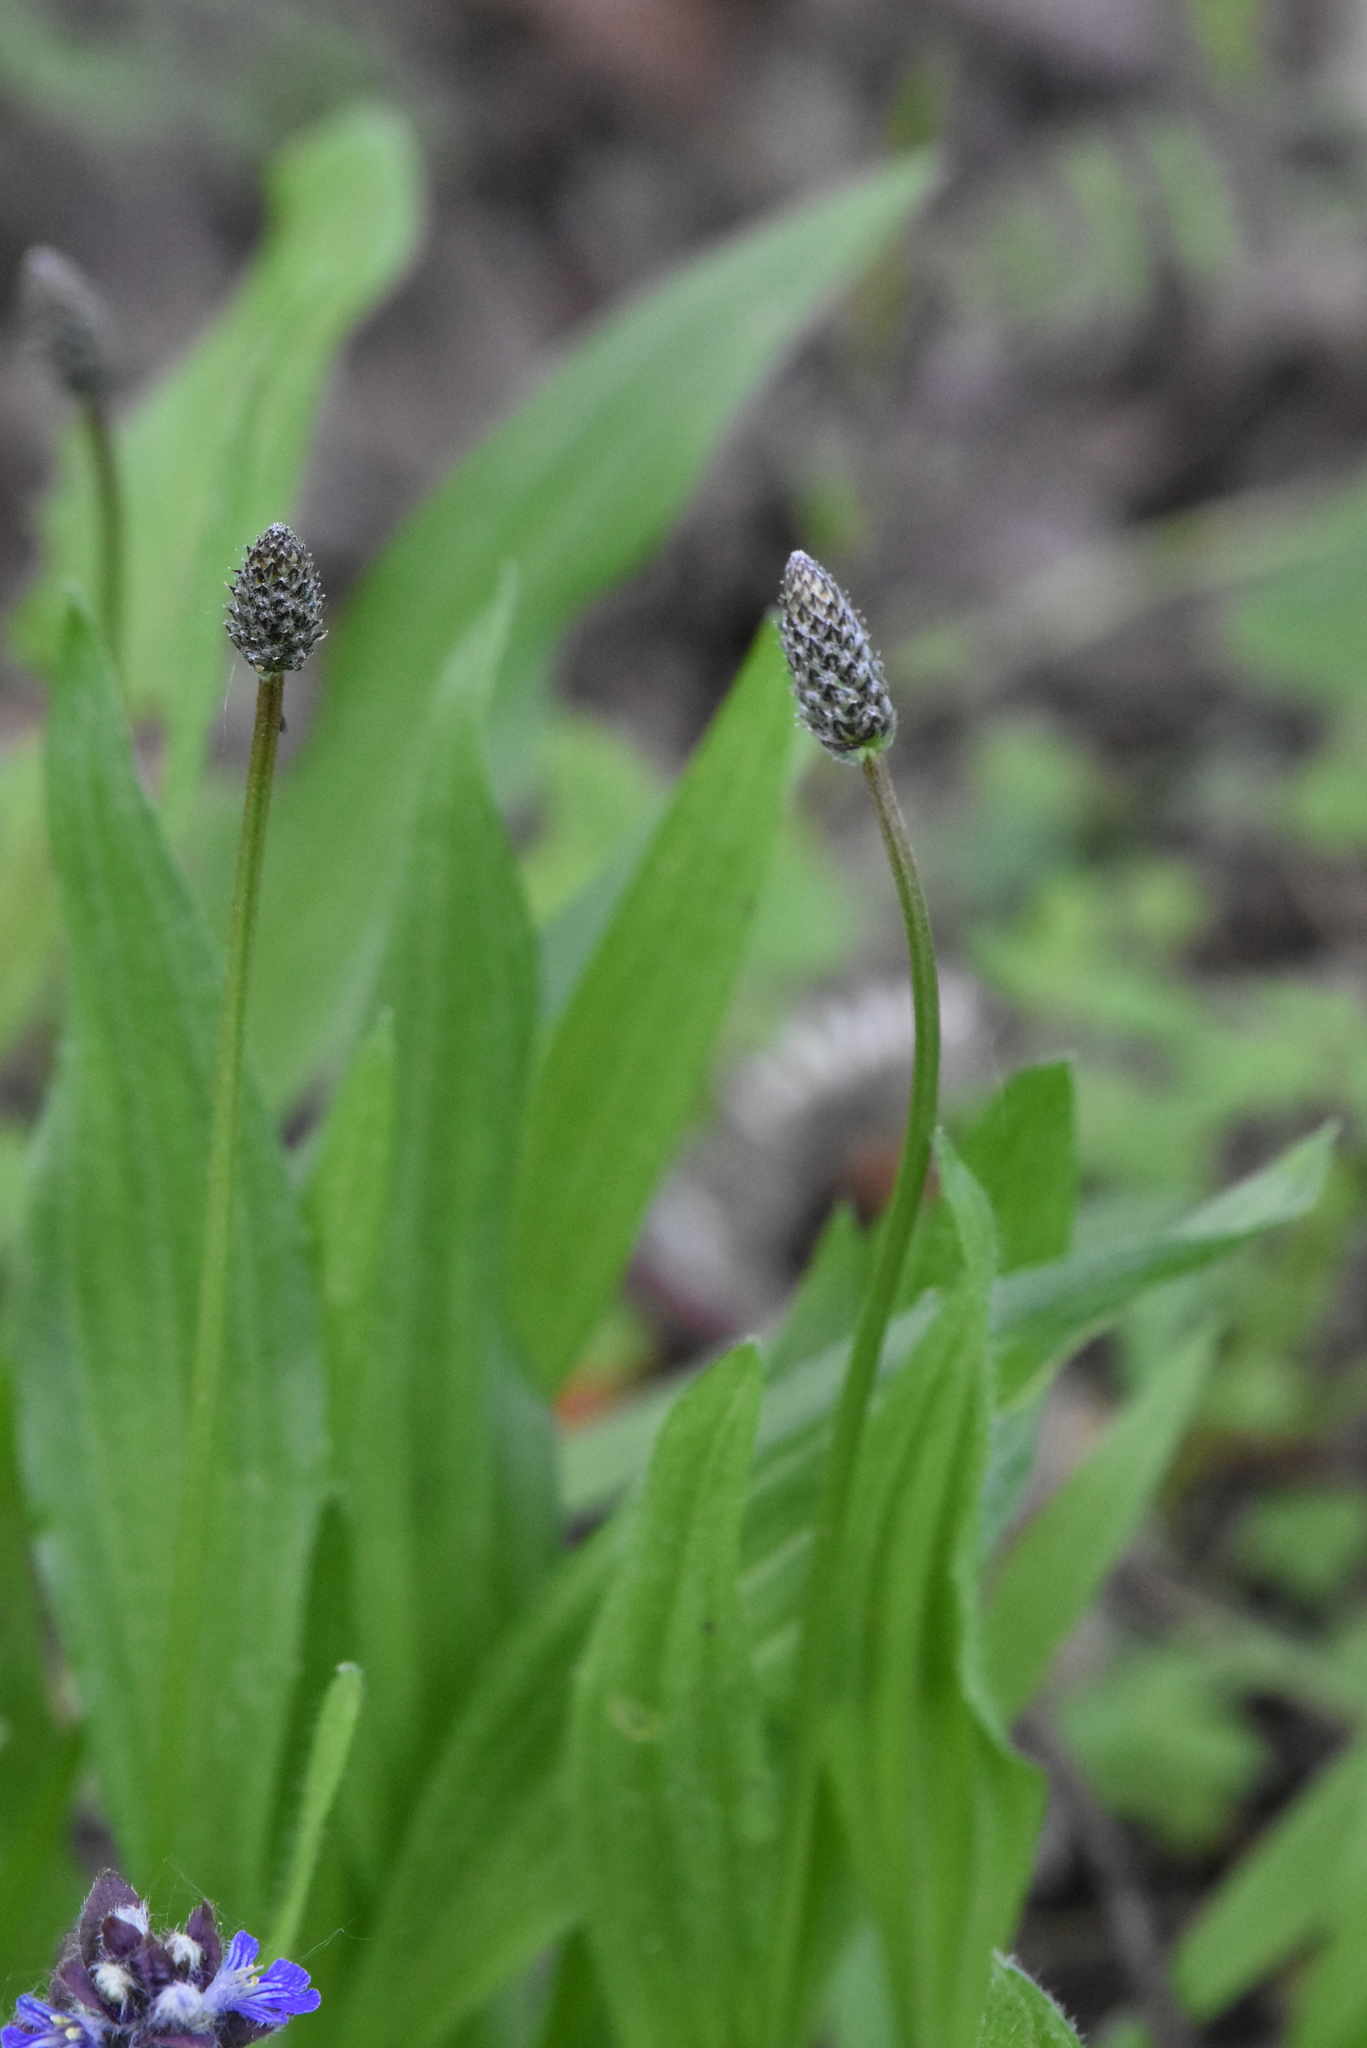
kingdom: Plantae
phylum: Tracheophyta
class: Magnoliopsida
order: Lamiales
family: Plantaginaceae
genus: Plantago
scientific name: Plantago lanceolata
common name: Ribwort plantain
